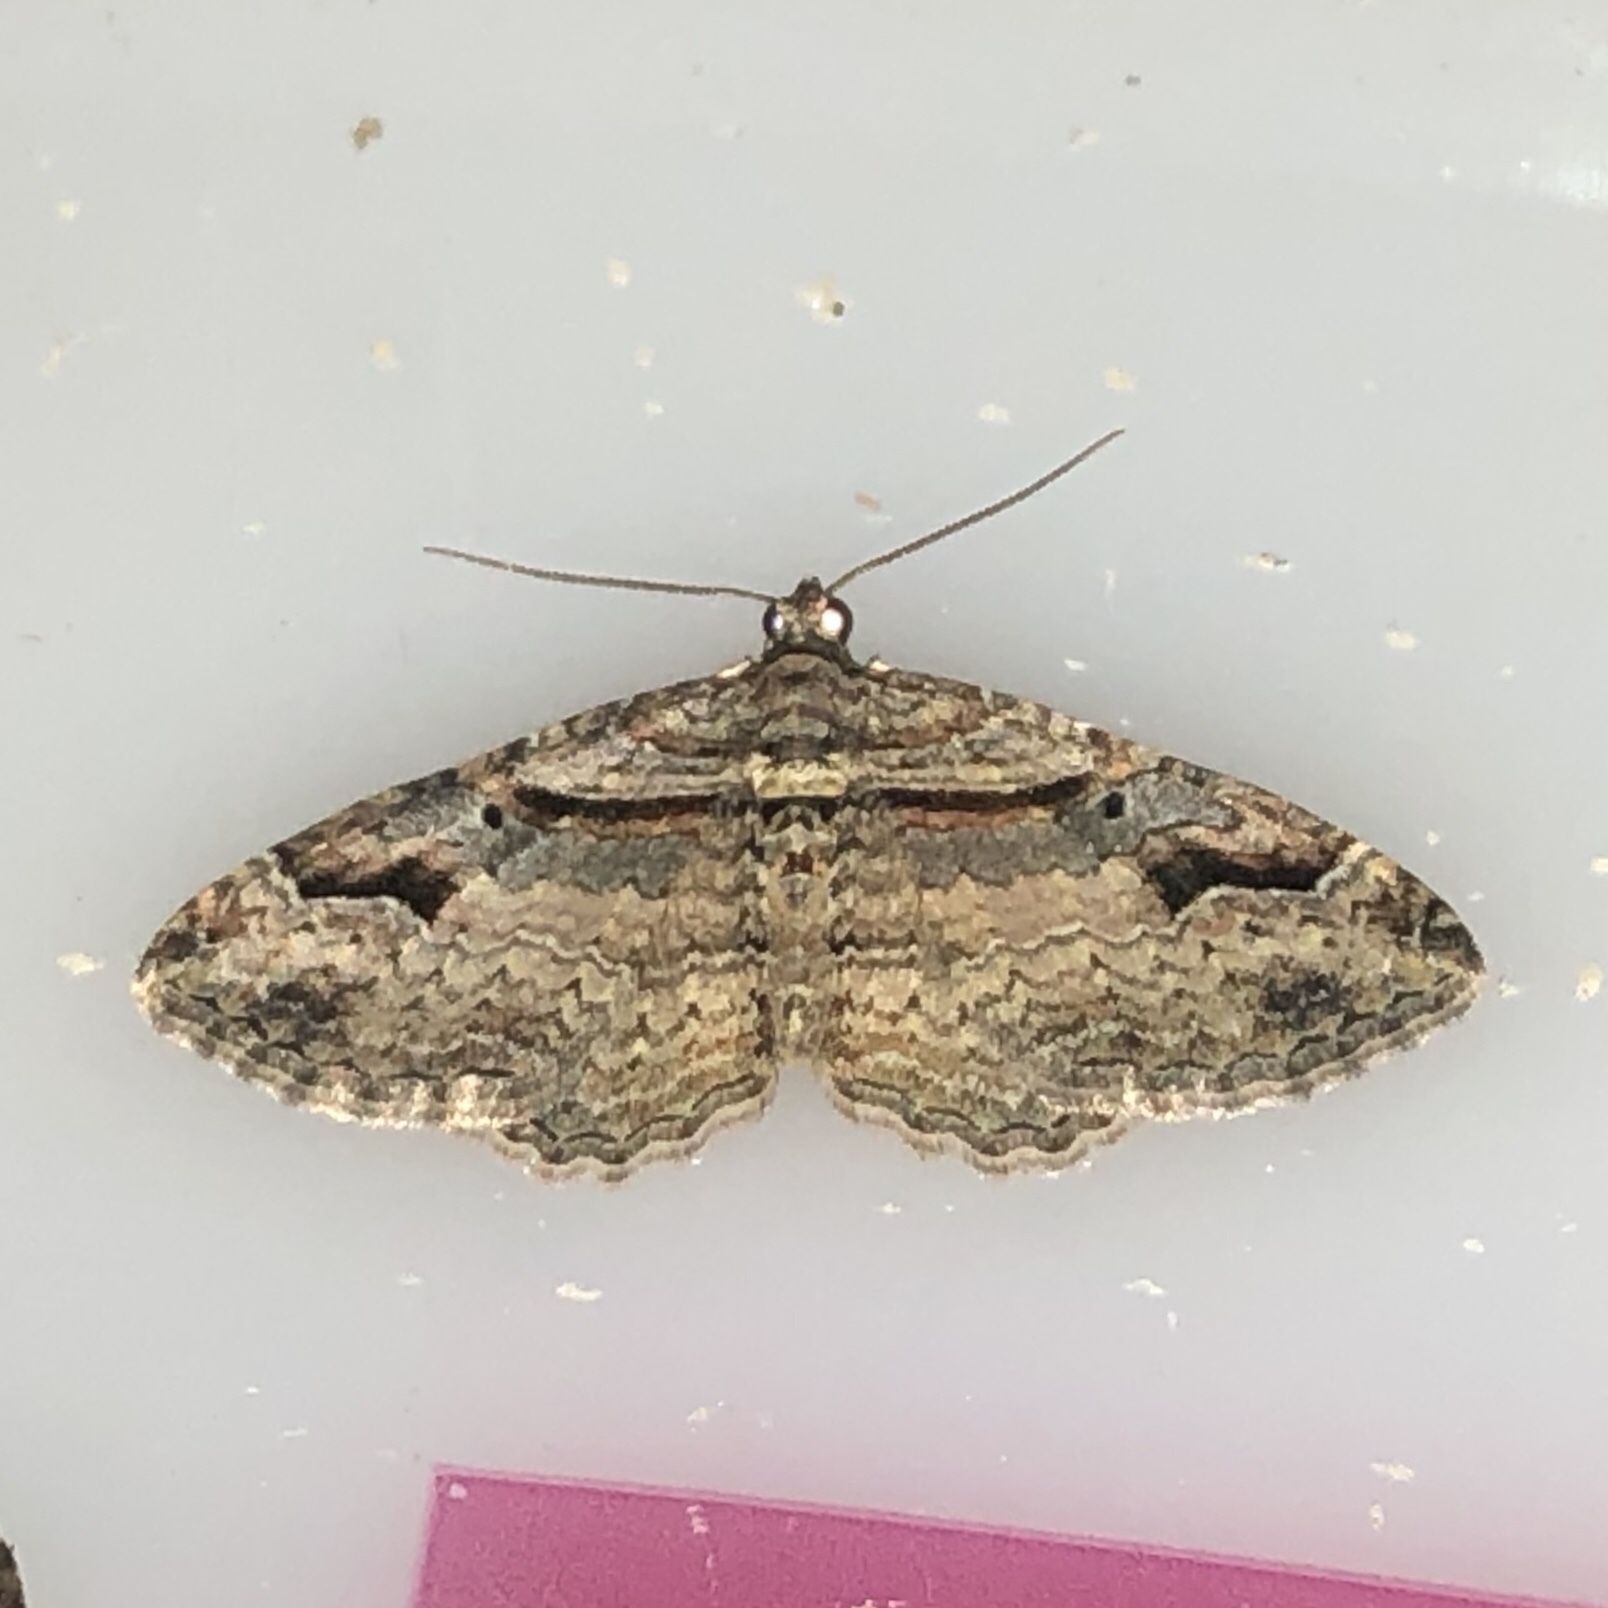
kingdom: Animalia
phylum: Arthropoda
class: Insecta
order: Lepidoptera
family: Geometridae
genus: Costaconvexa
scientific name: Costaconvexa centrostrigaria
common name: Bent-line carpet
